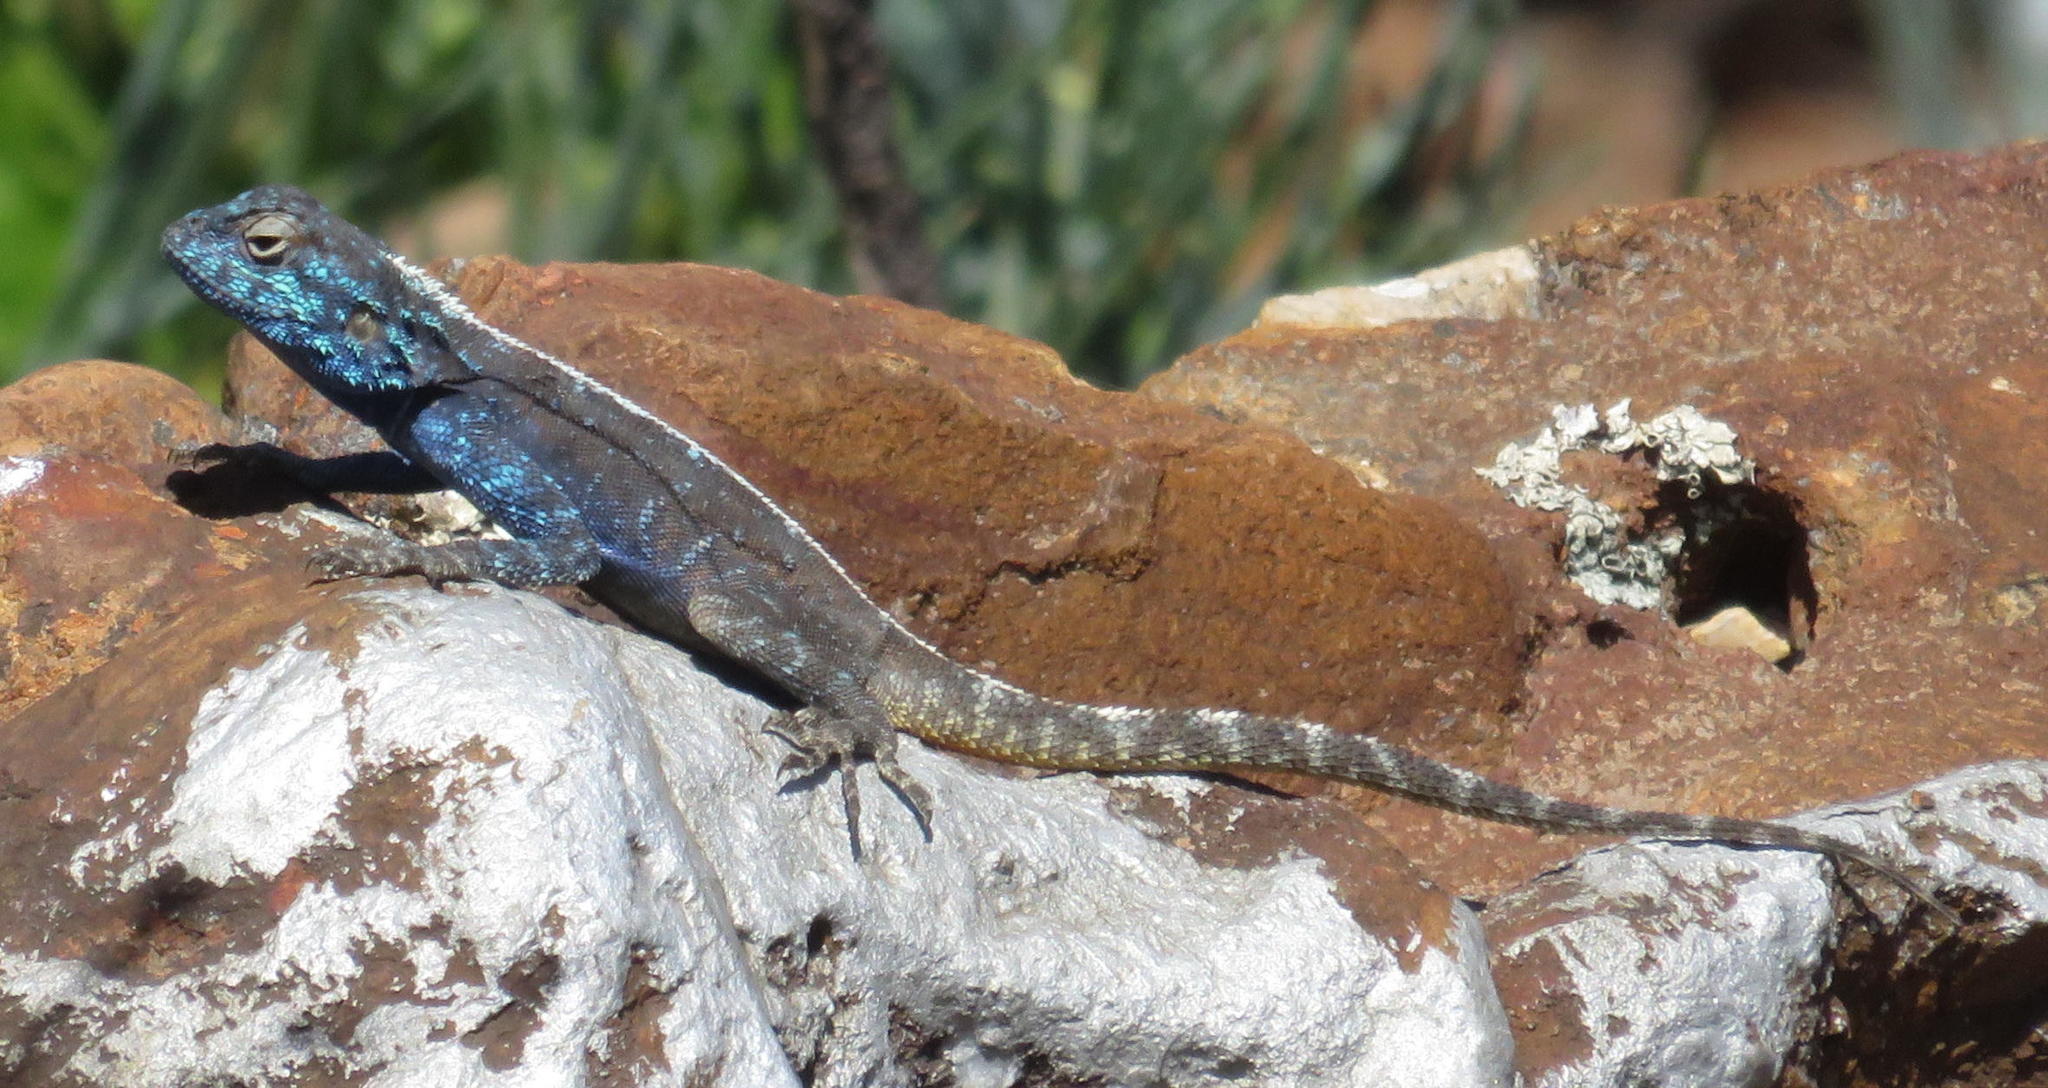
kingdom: Animalia
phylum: Chordata
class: Squamata
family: Agamidae
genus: Agama
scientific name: Agama atra
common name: Southern african rock agama
